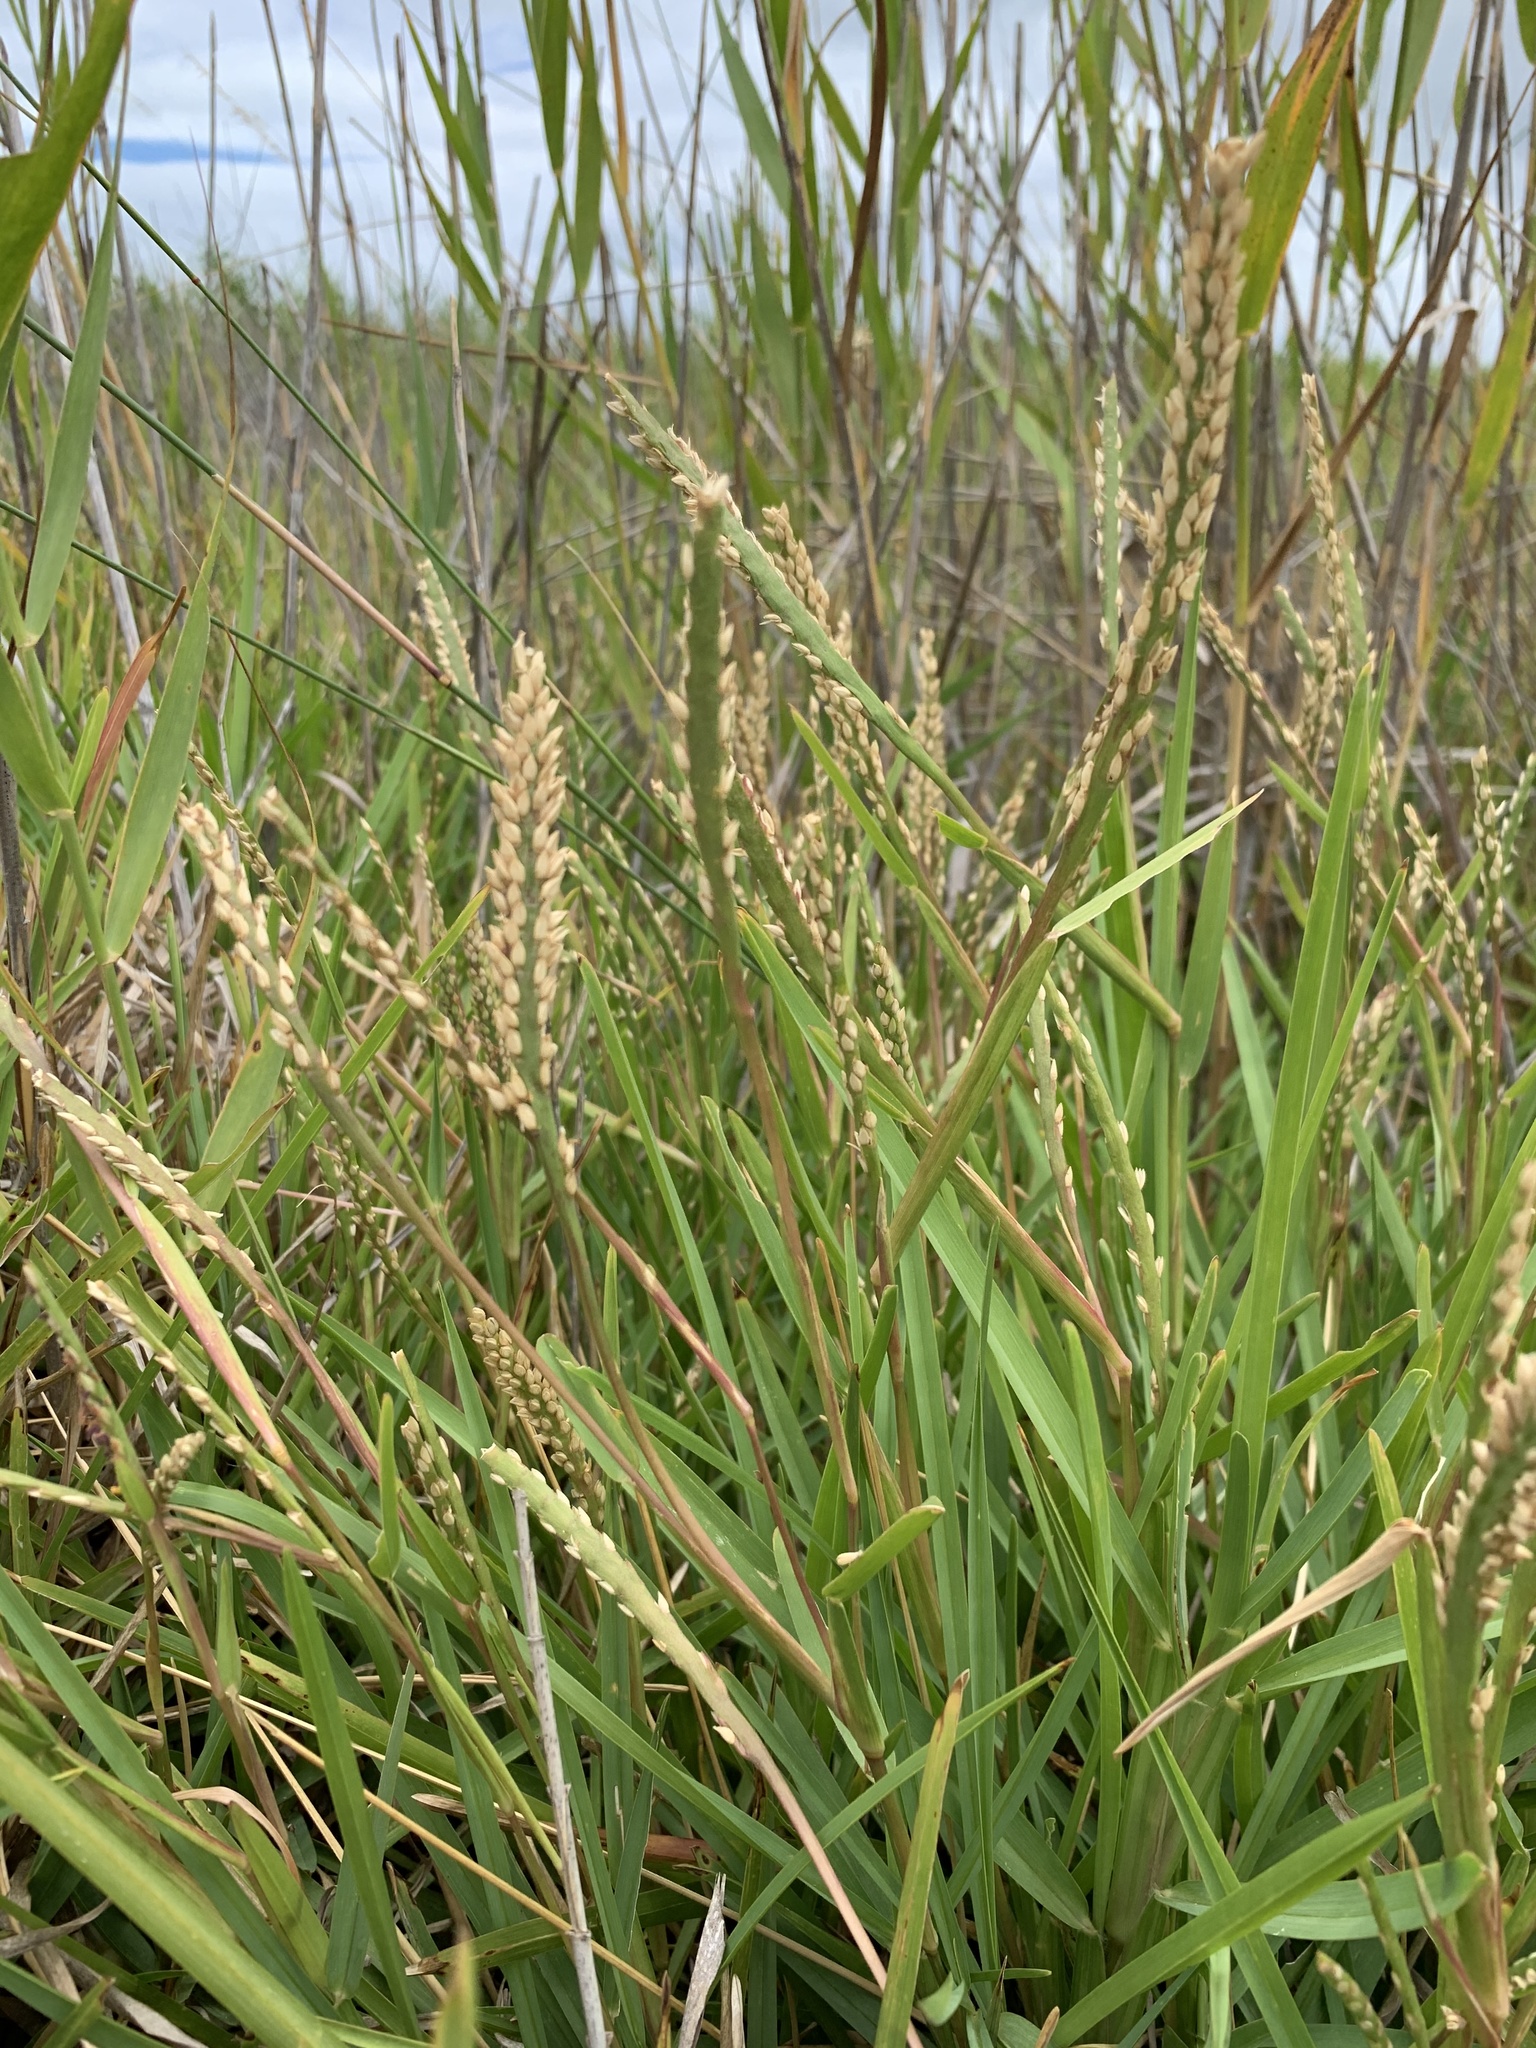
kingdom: Plantae
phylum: Tracheophyta
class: Liliopsida
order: Poales
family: Poaceae
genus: Stenotaphrum
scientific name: Stenotaphrum secundatum
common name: St. augustine grass
